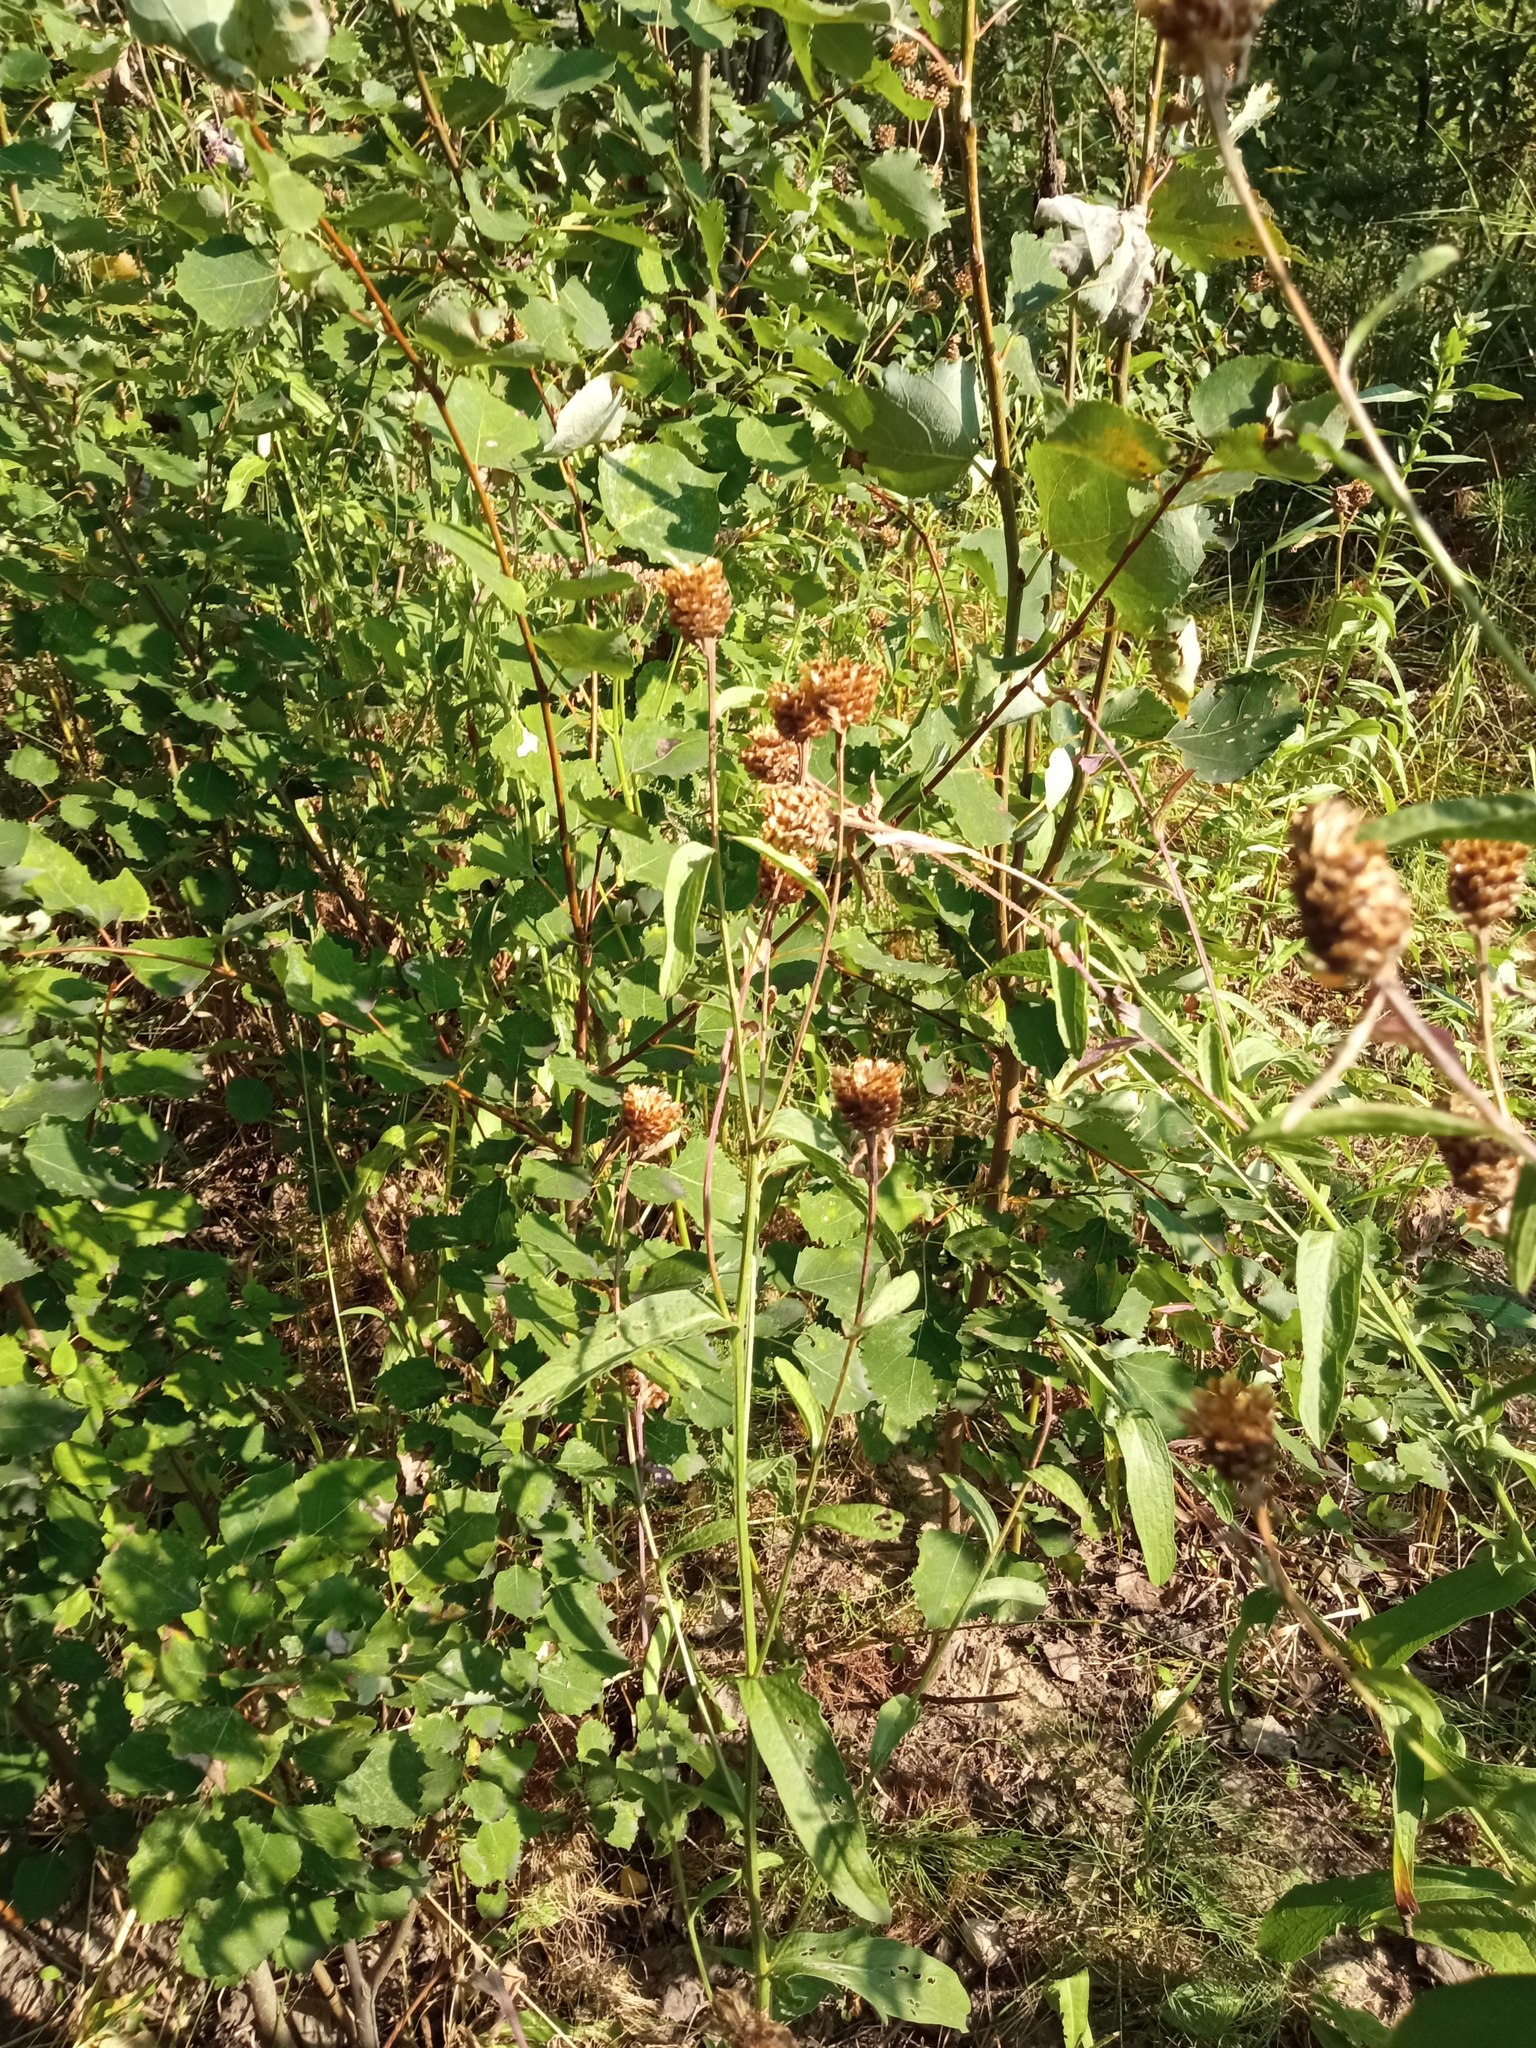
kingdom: Plantae
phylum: Tracheophyta
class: Magnoliopsida
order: Asterales
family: Asteraceae
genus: Centaurea
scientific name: Centaurea jacea
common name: Brown knapweed
